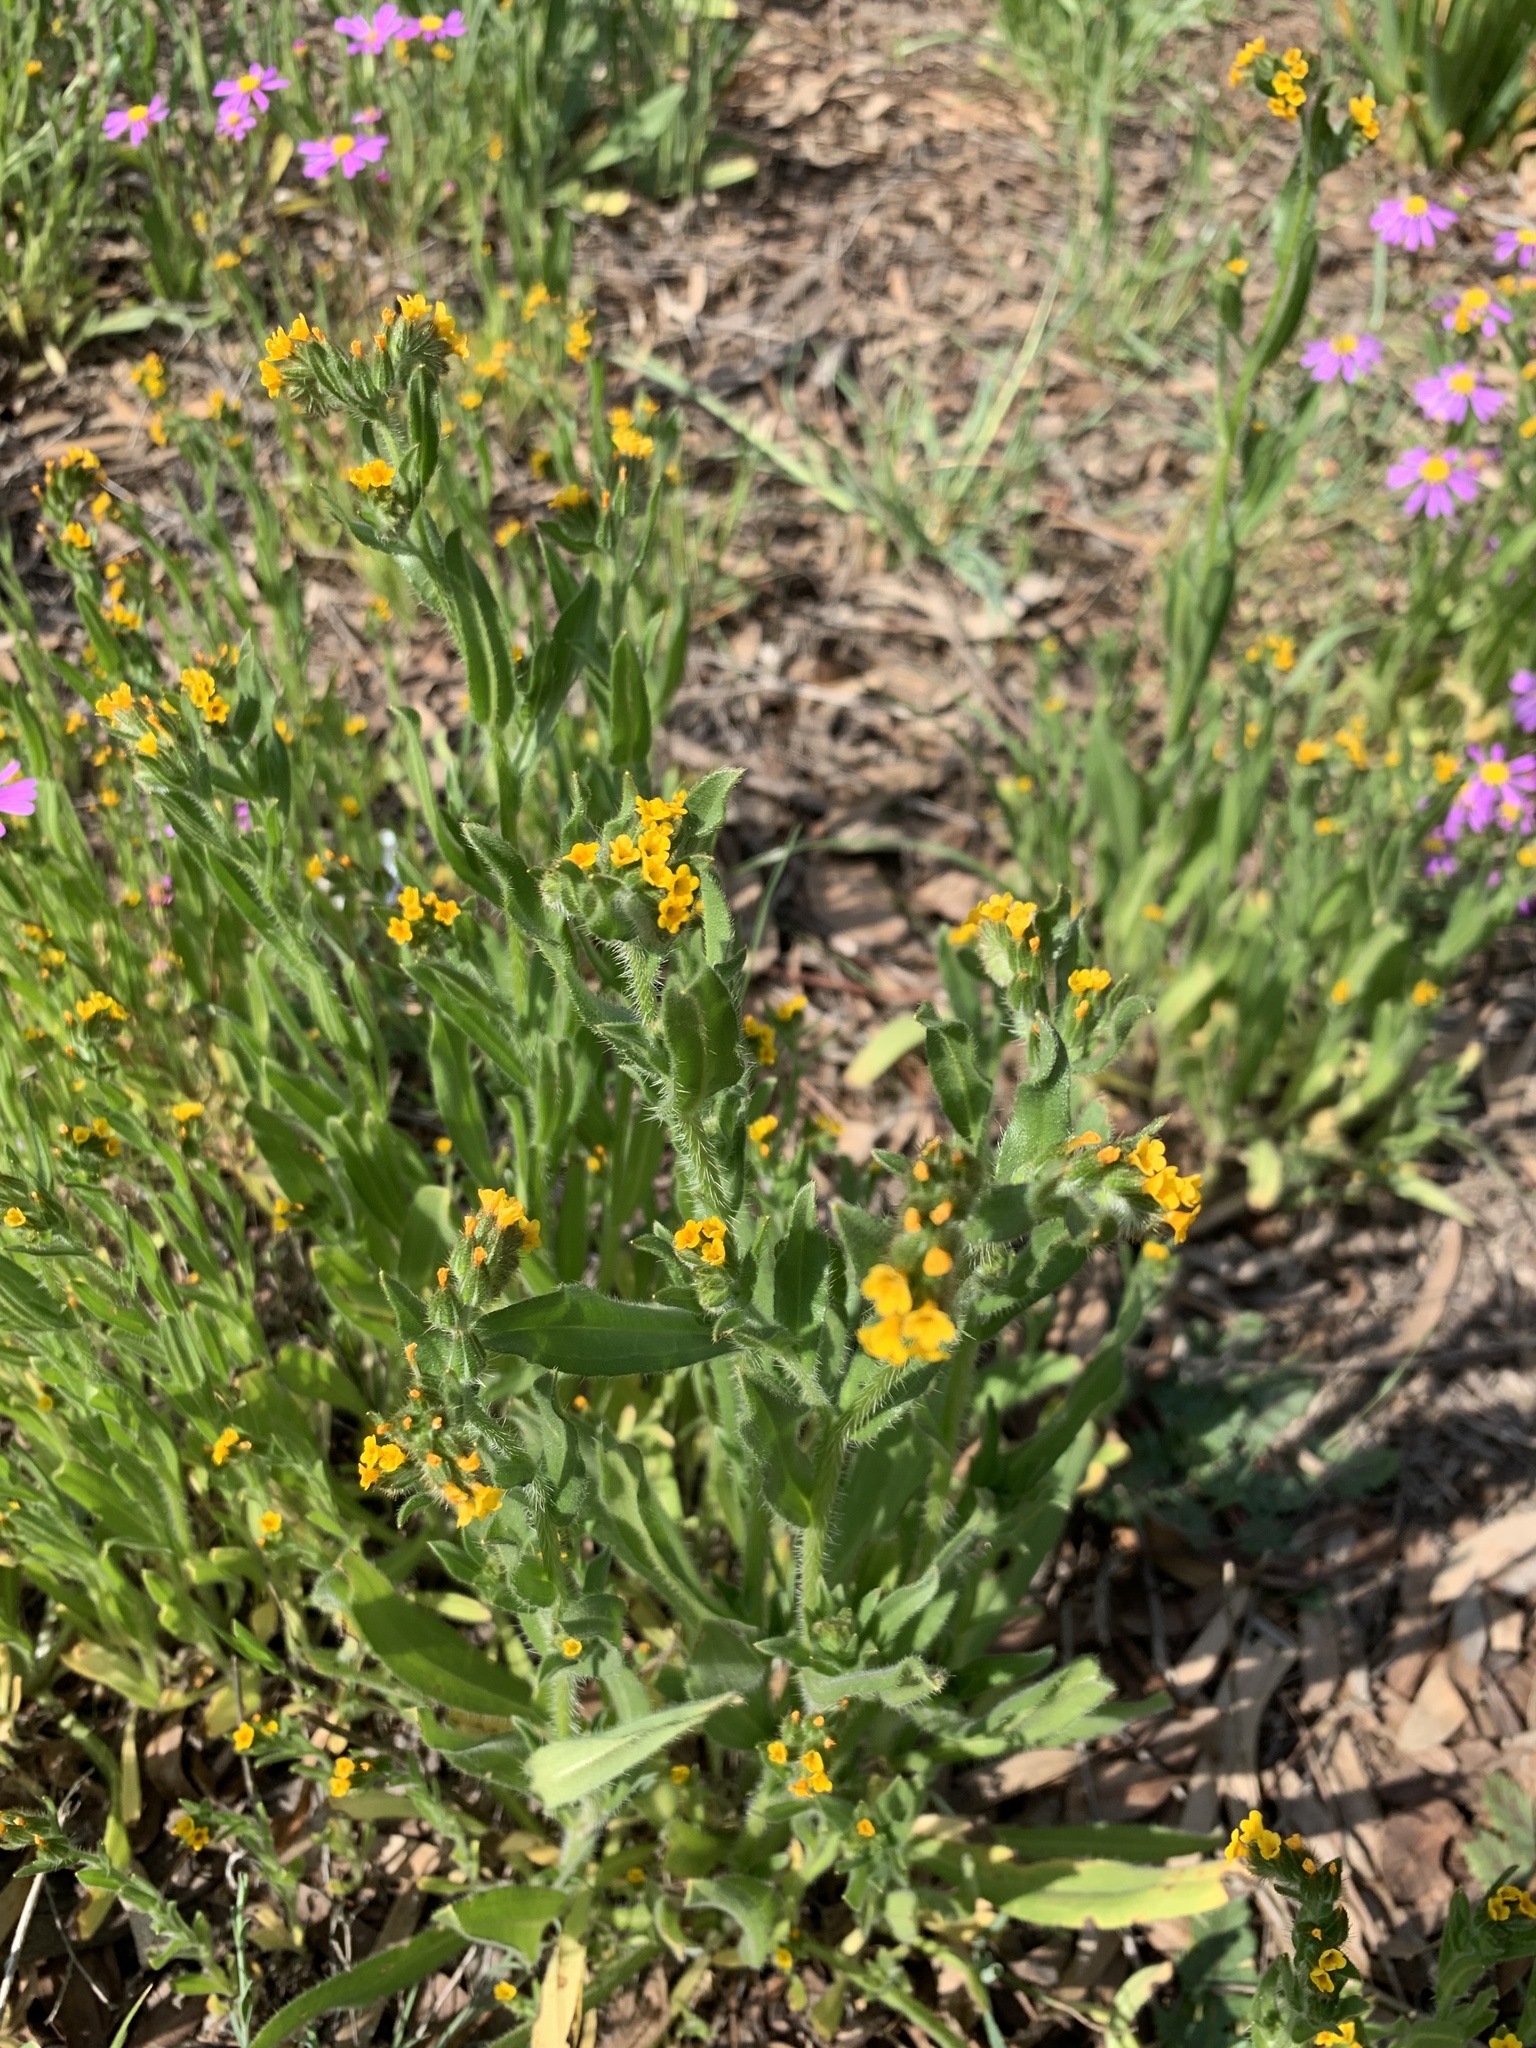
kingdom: Plantae
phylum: Tracheophyta
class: Magnoliopsida
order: Boraginales
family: Boraginaceae
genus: Amsinckia
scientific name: Amsinckia menziesii
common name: Menzies' fiddleneck
